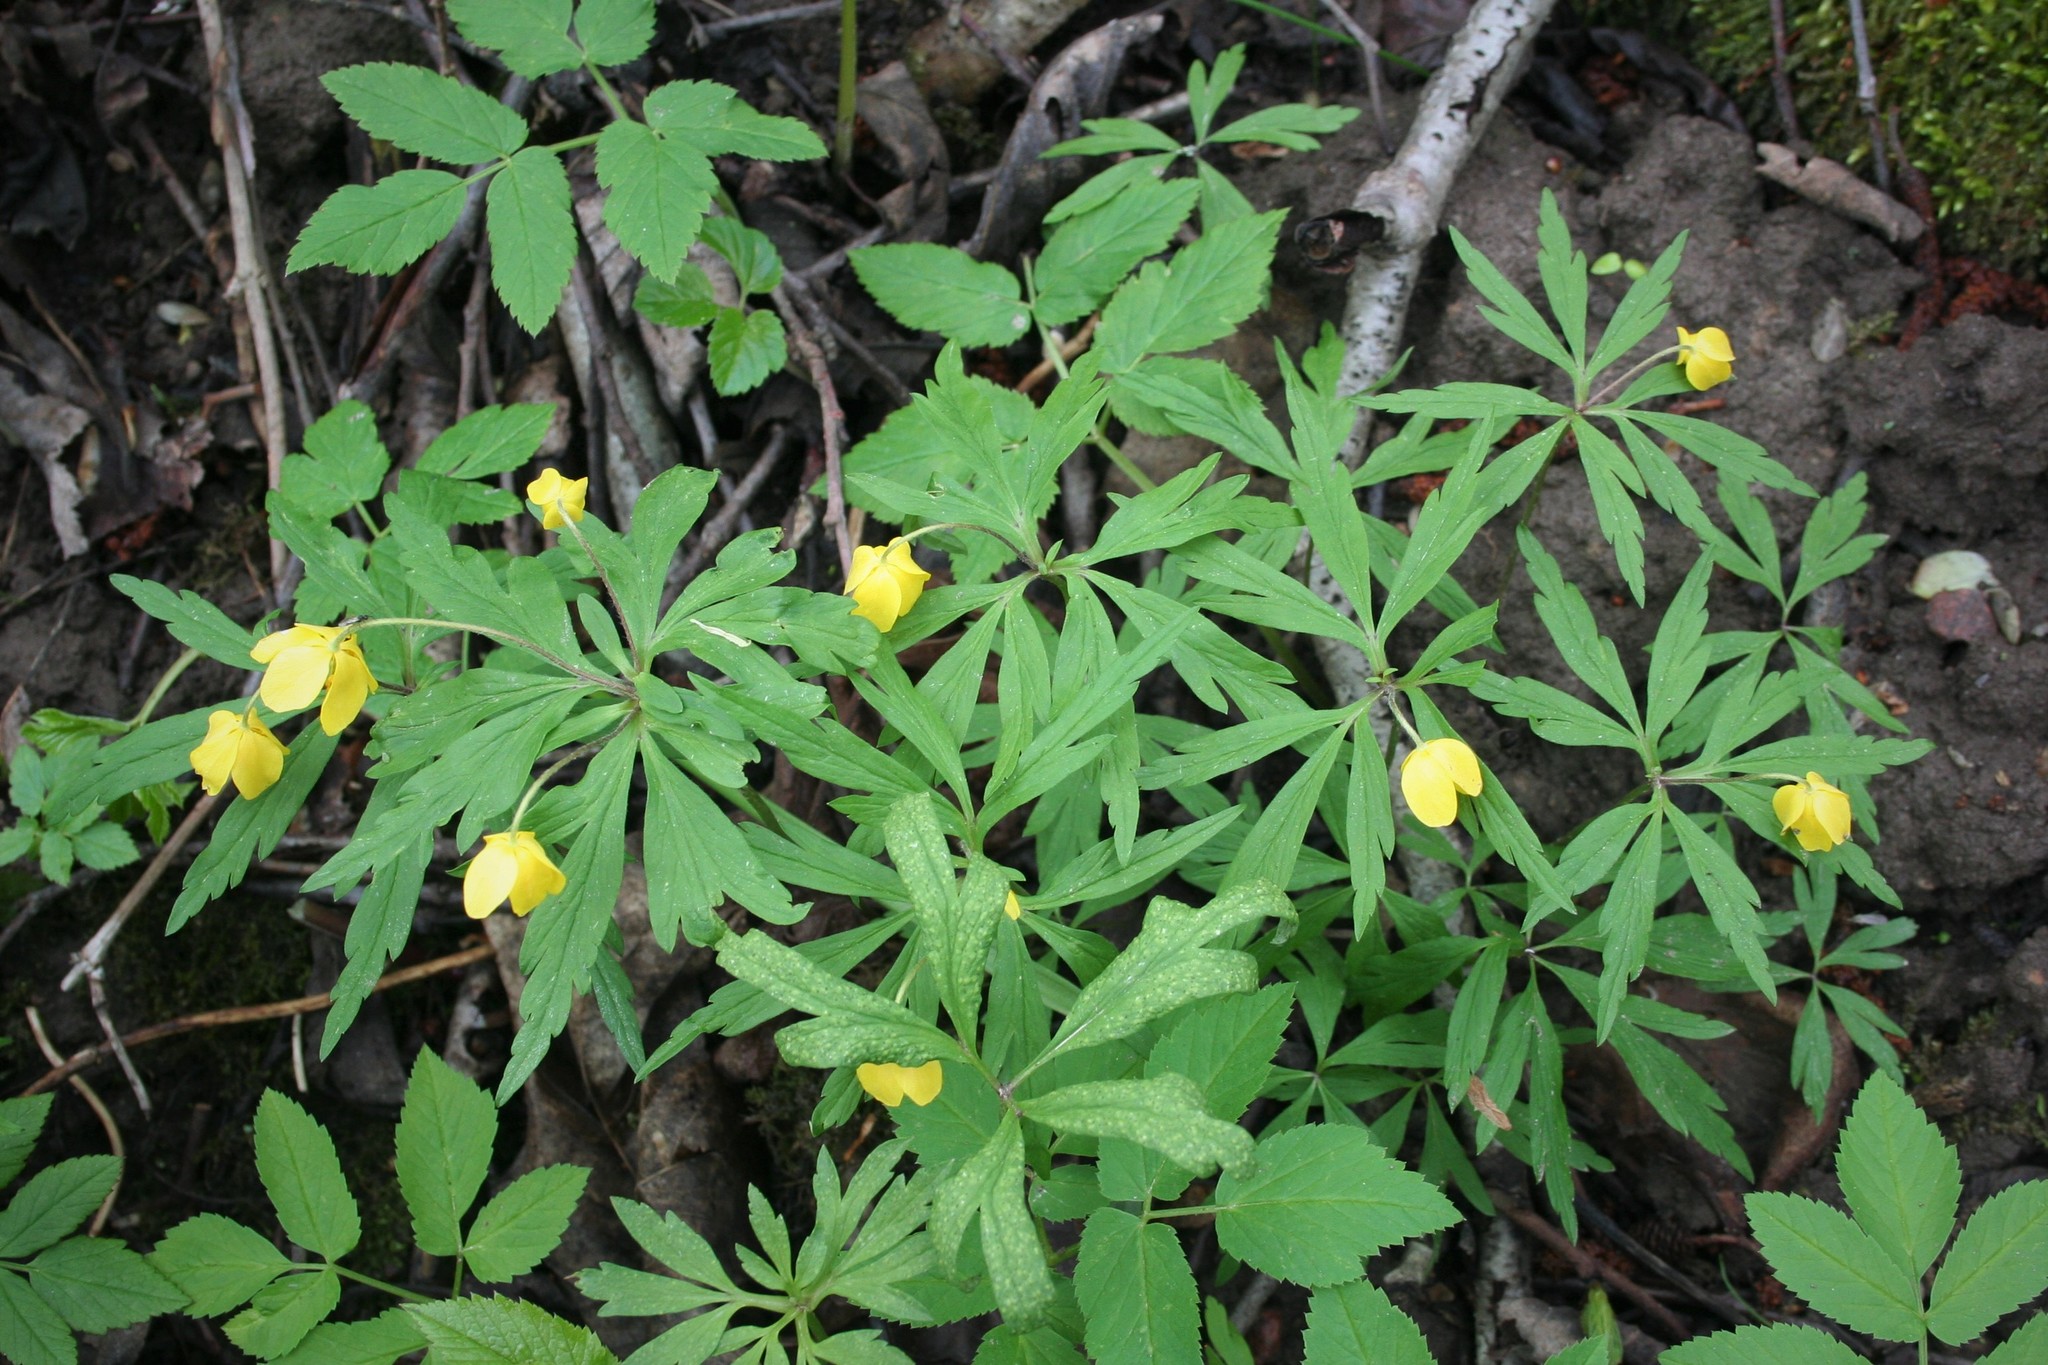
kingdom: Plantae
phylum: Tracheophyta
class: Magnoliopsida
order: Ranunculales
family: Ranunculaceae
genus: Anemone
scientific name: Anemone ranunculoides
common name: Yellow anemone
